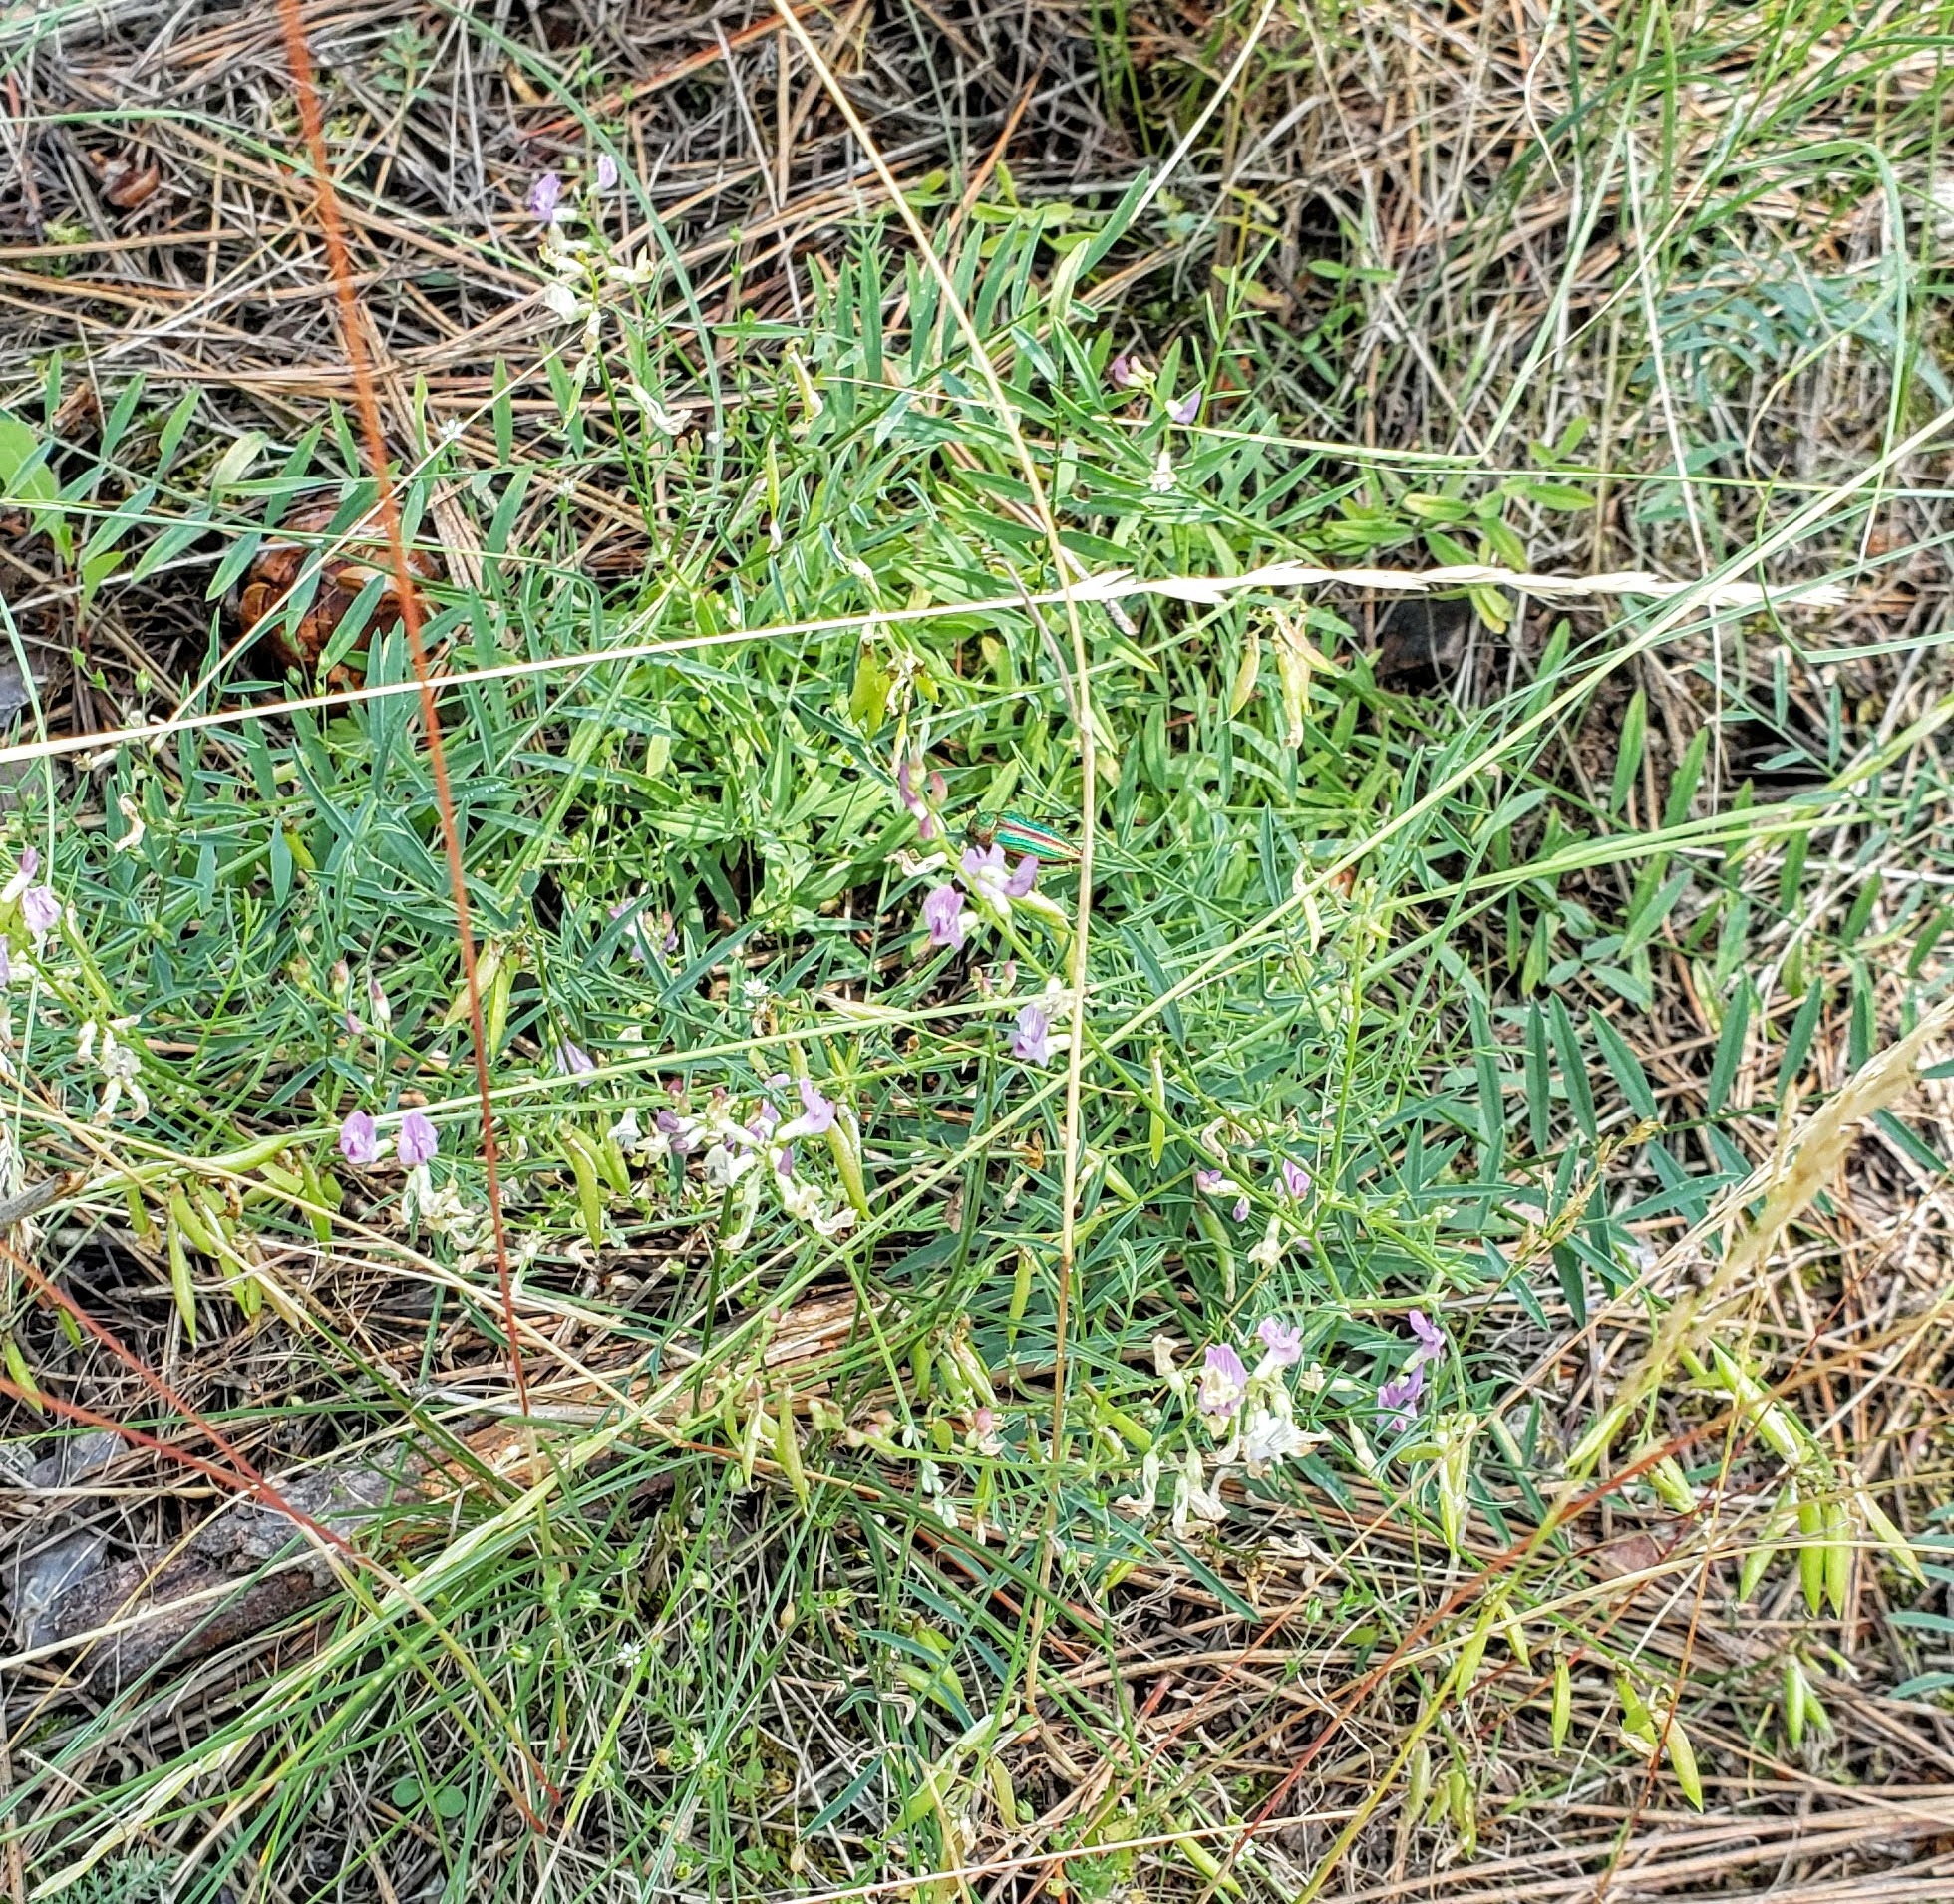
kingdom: Plantae
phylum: Tracheophyta
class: Magnoliopsida
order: Fabales
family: Fabaceae
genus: Astragalus
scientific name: Astragalus miser
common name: Timber milkvetch
